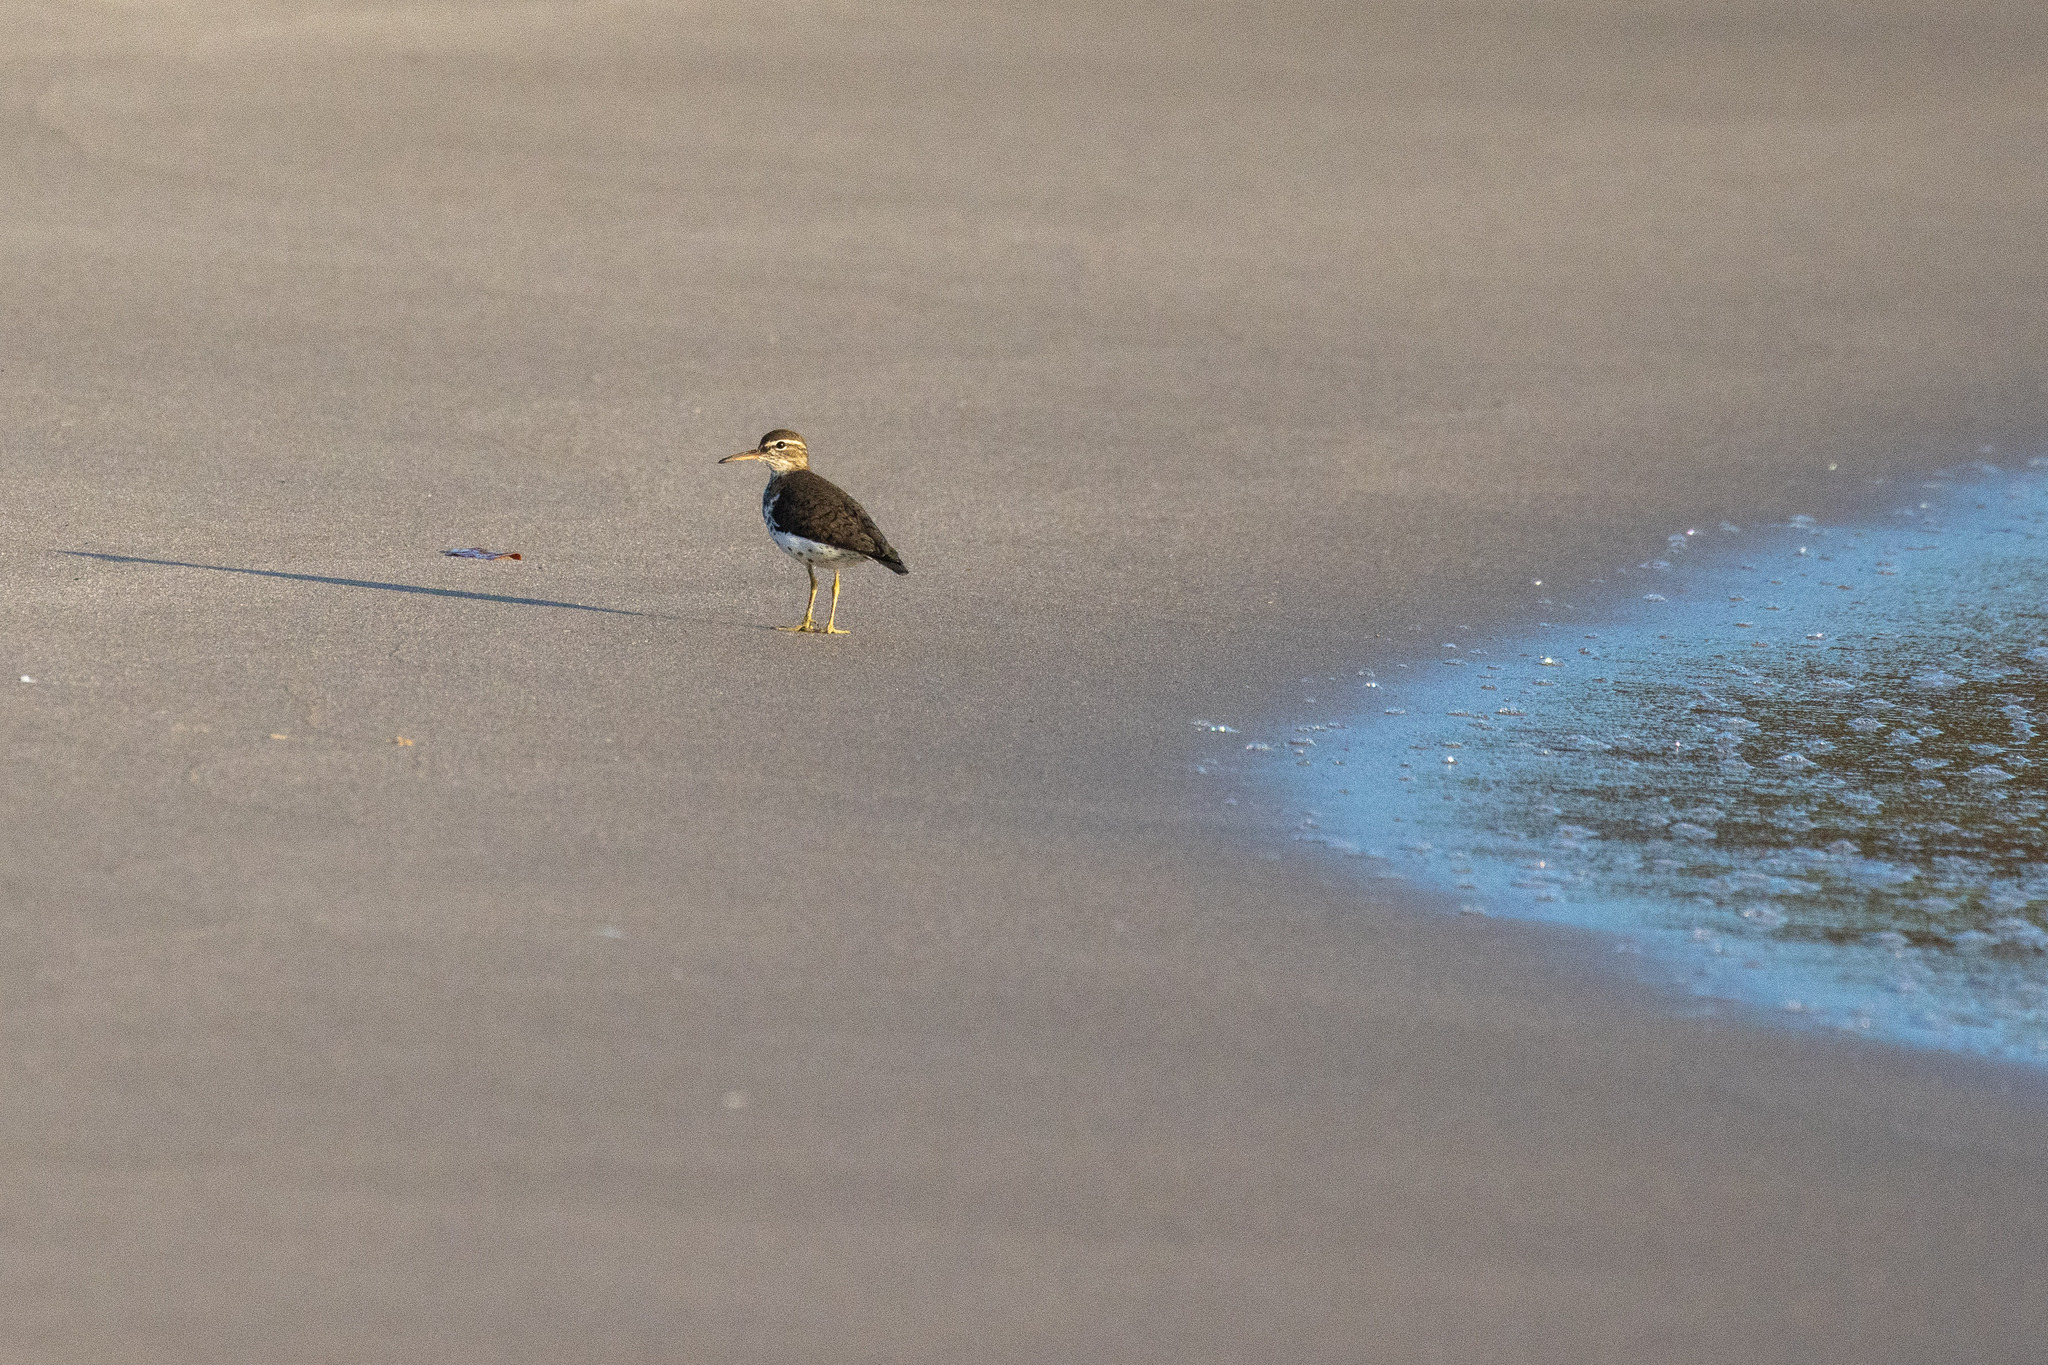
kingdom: Animalia
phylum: Chordata
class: Aves
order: Charadriiformes
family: Scolopacidae
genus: Actitis
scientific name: Actitis macularius
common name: Spotted sandpiper
